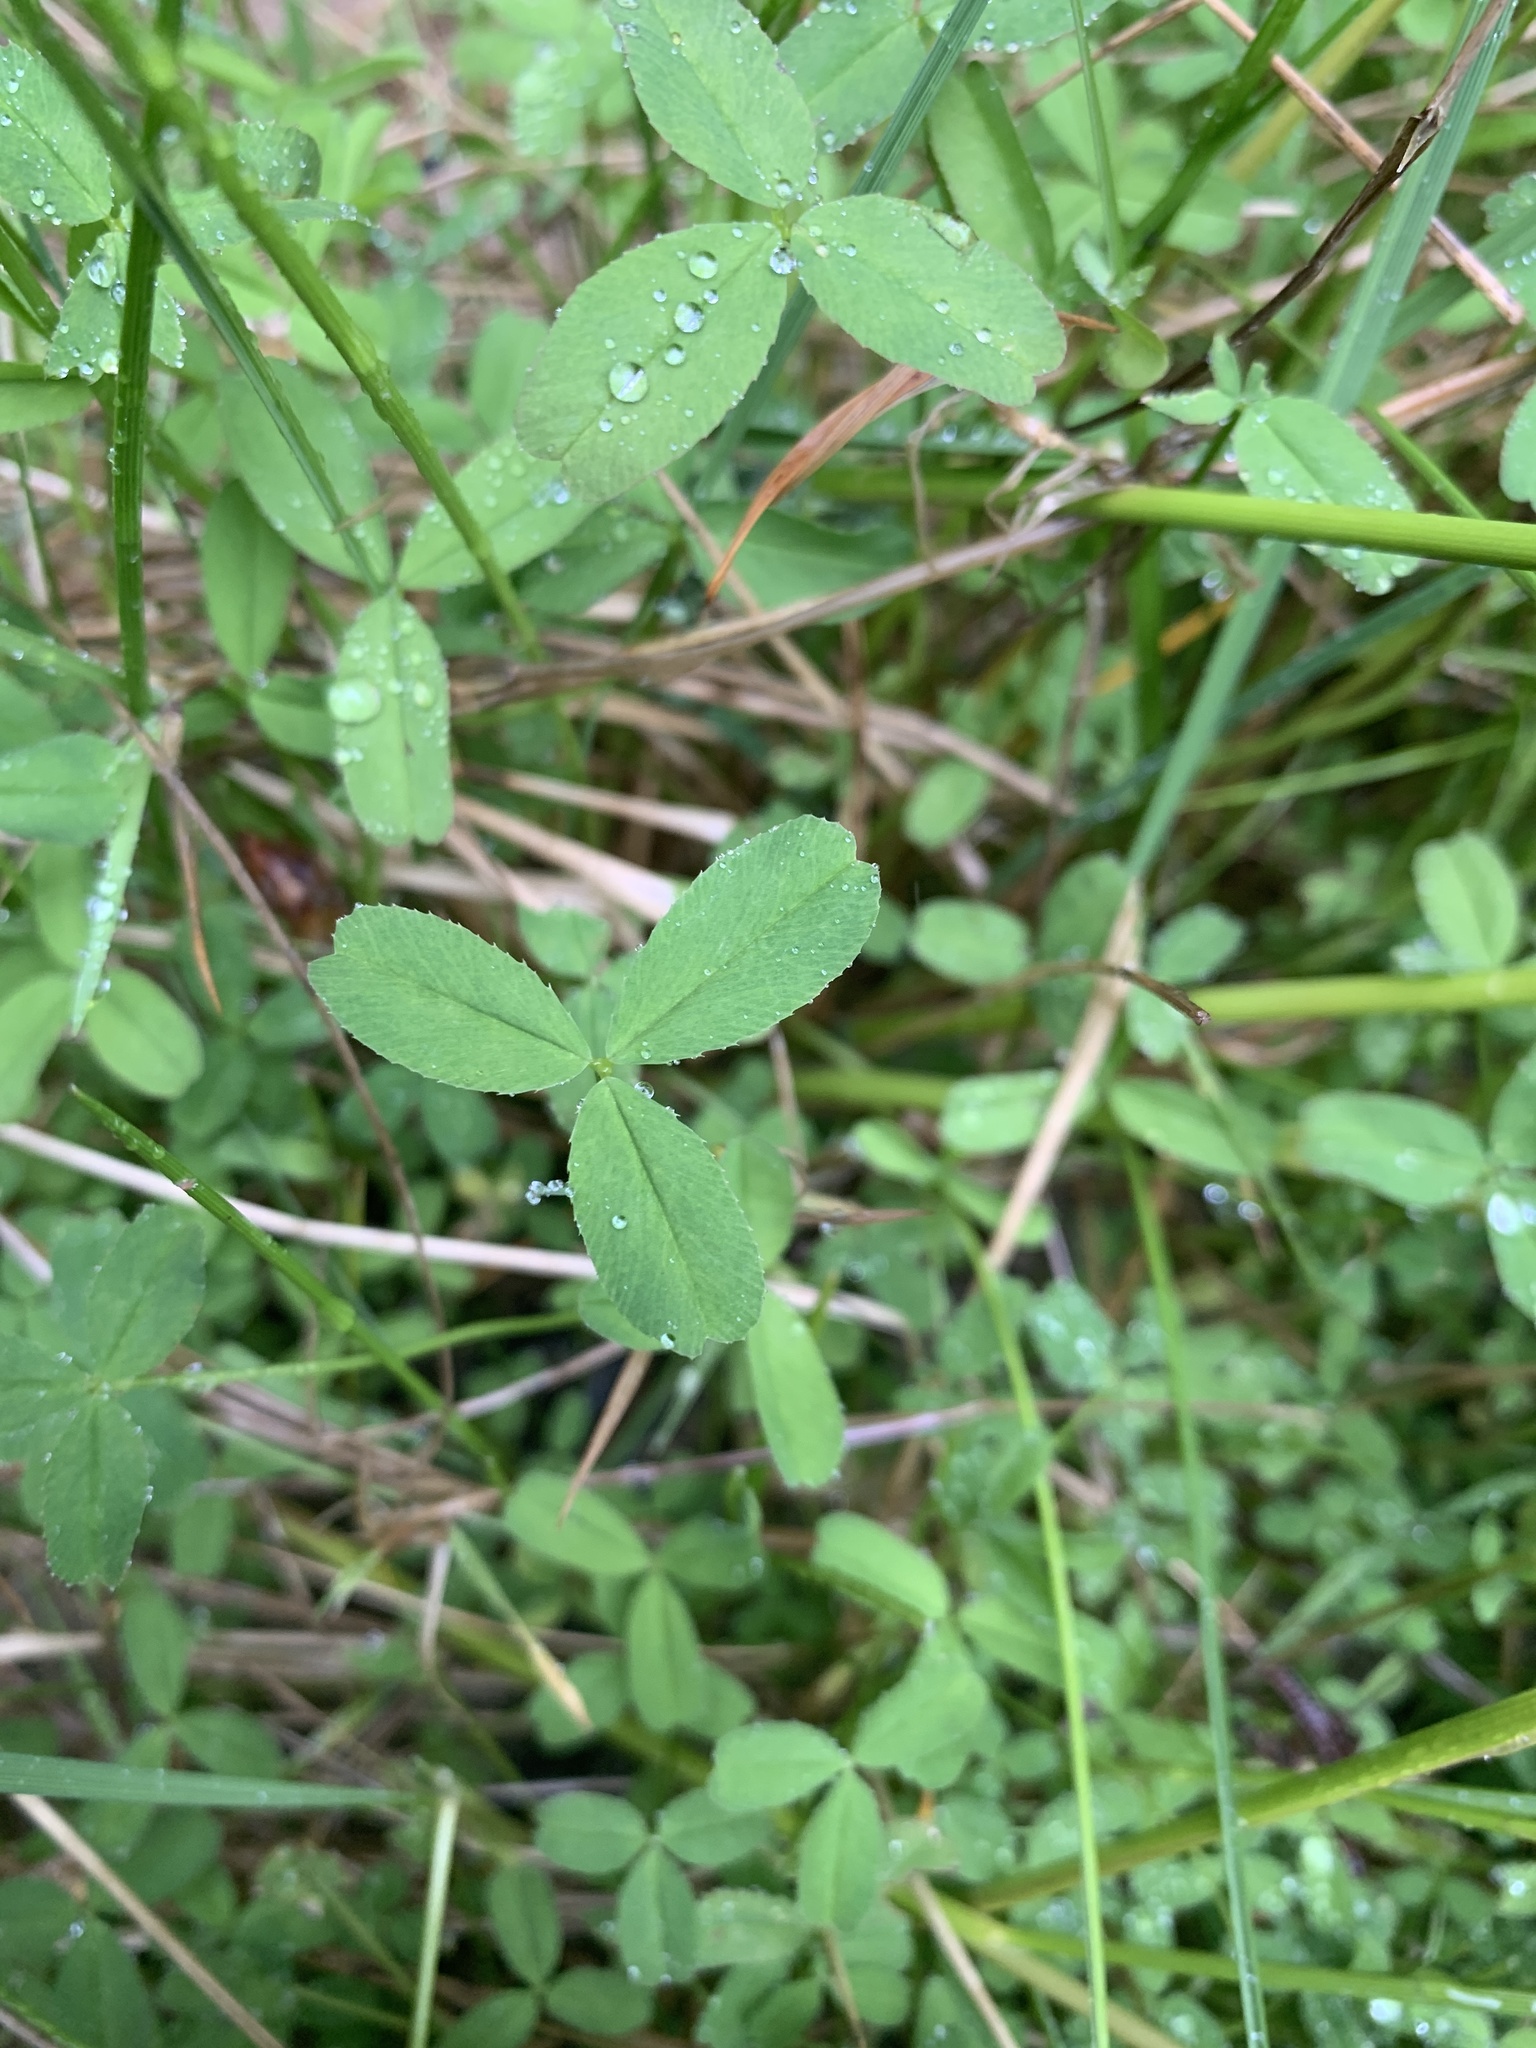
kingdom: Plantae
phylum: Tracheophyta
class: Magnoliopsida
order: Fabales
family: Fabaceae
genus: Trifolium
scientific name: Trifolium wormskioldii
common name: Springbank clover
